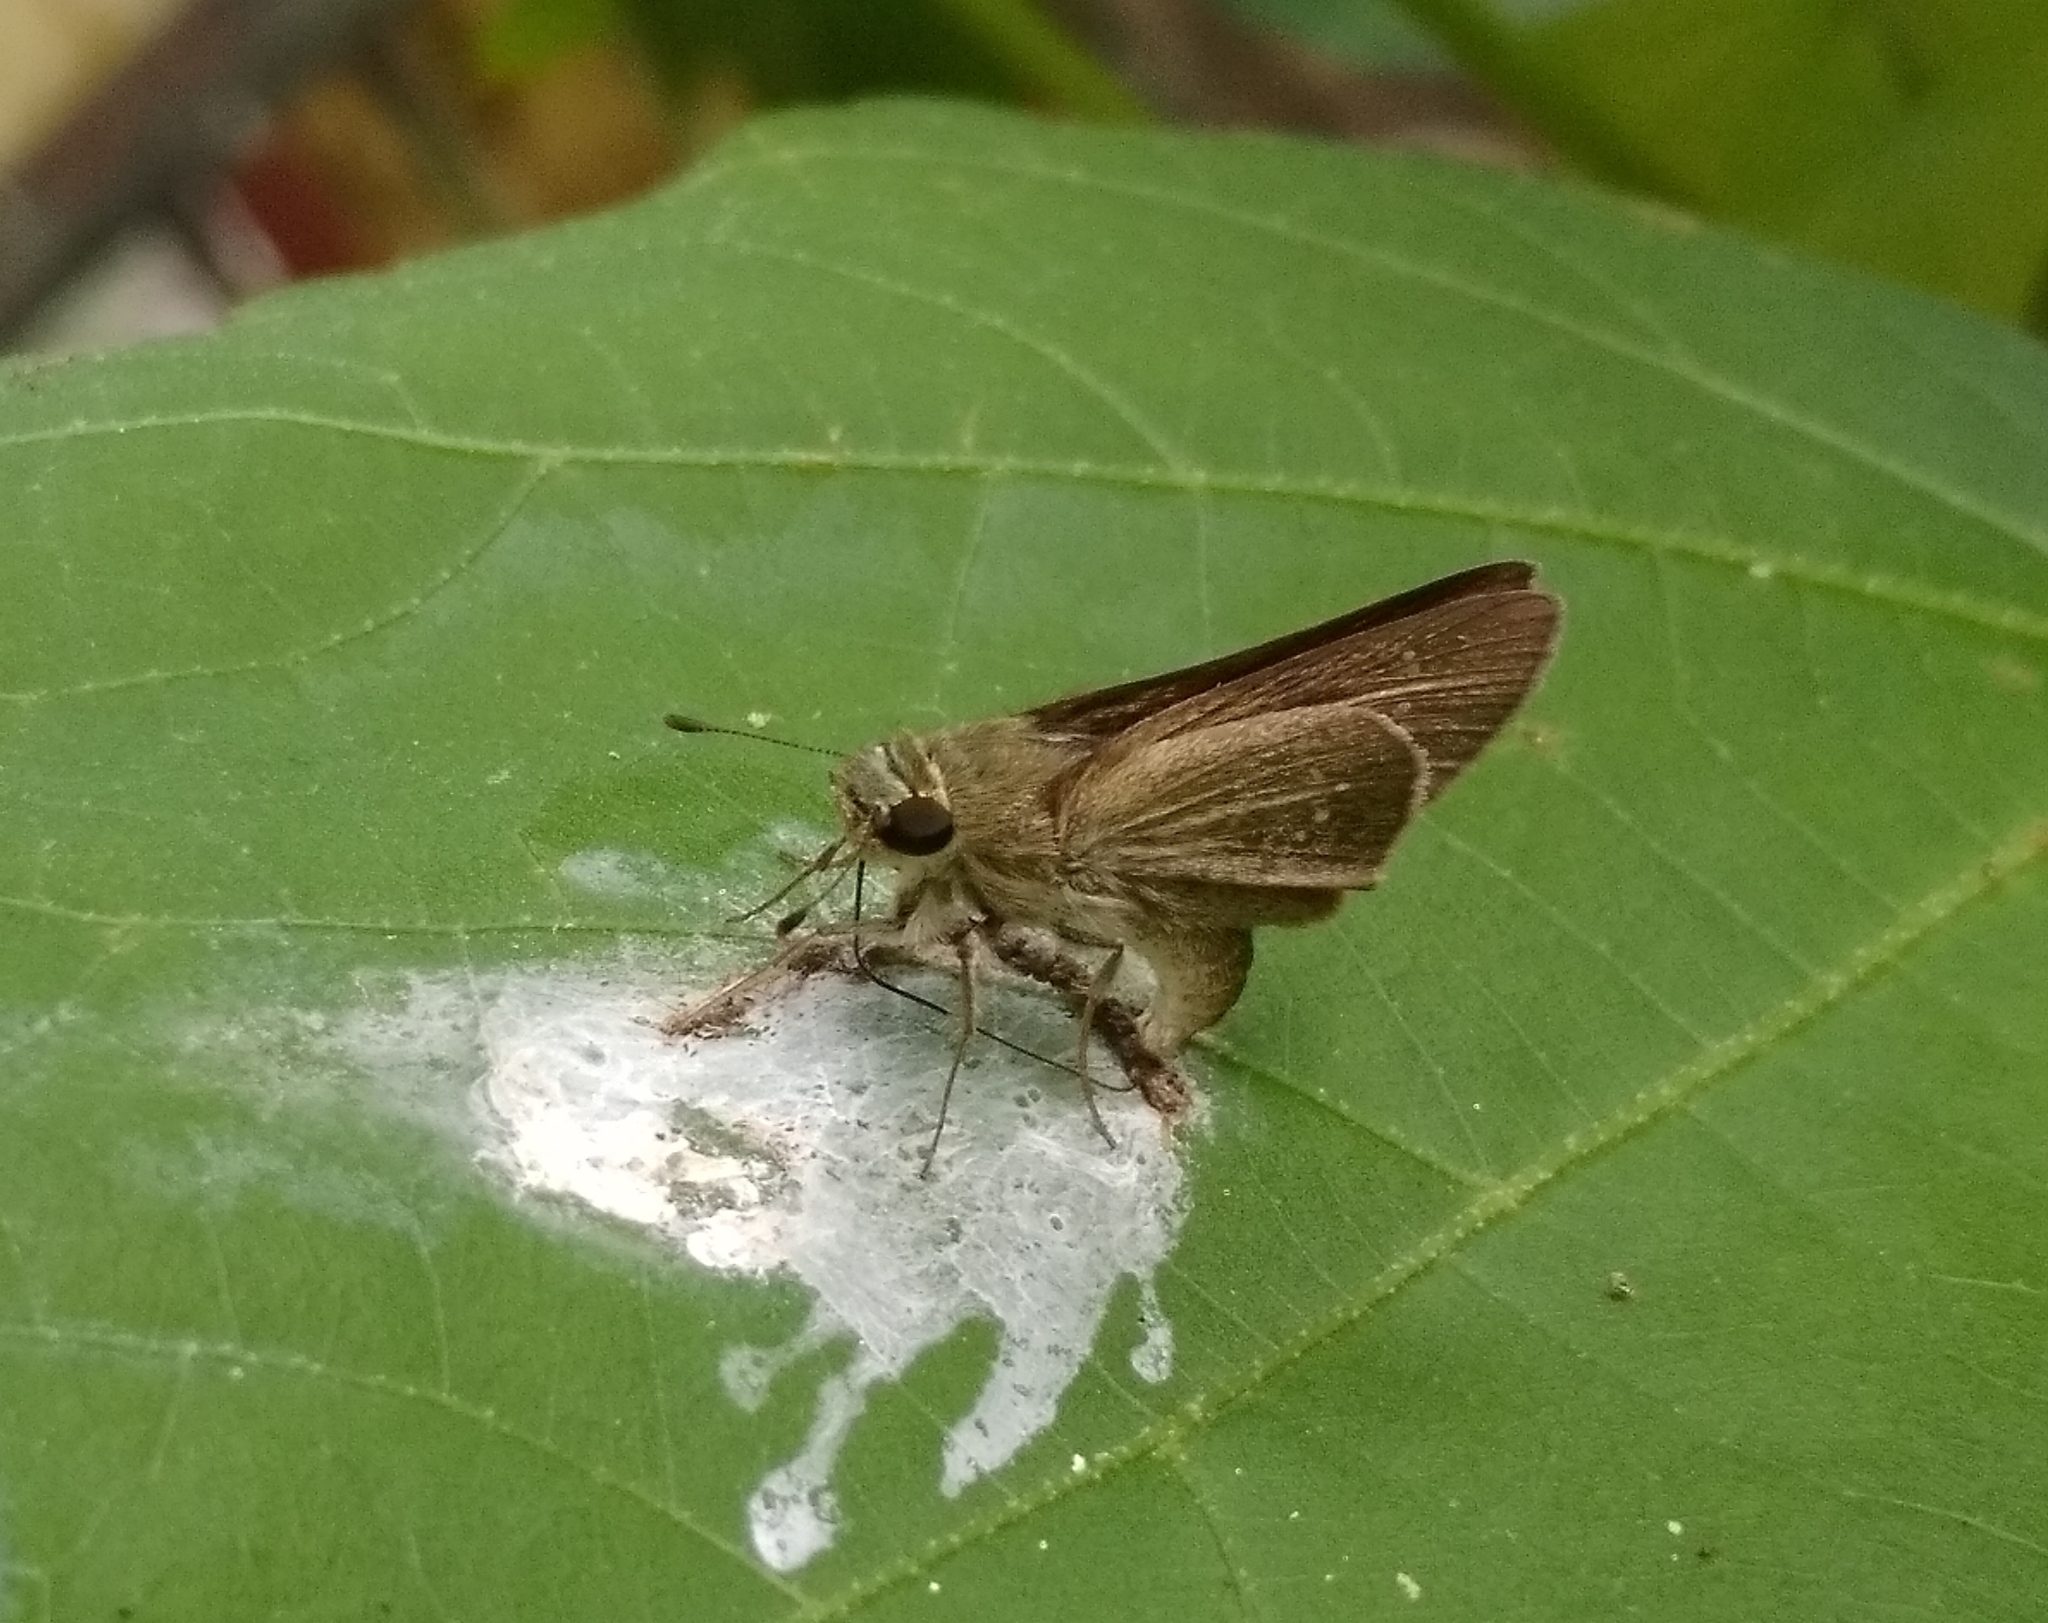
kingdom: Animalia
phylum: Arthropoda
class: Insecta
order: Lepidoptera
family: Hesperiidae
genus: Pelopidas
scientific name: Pelopidas agna
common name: Little branded swift
